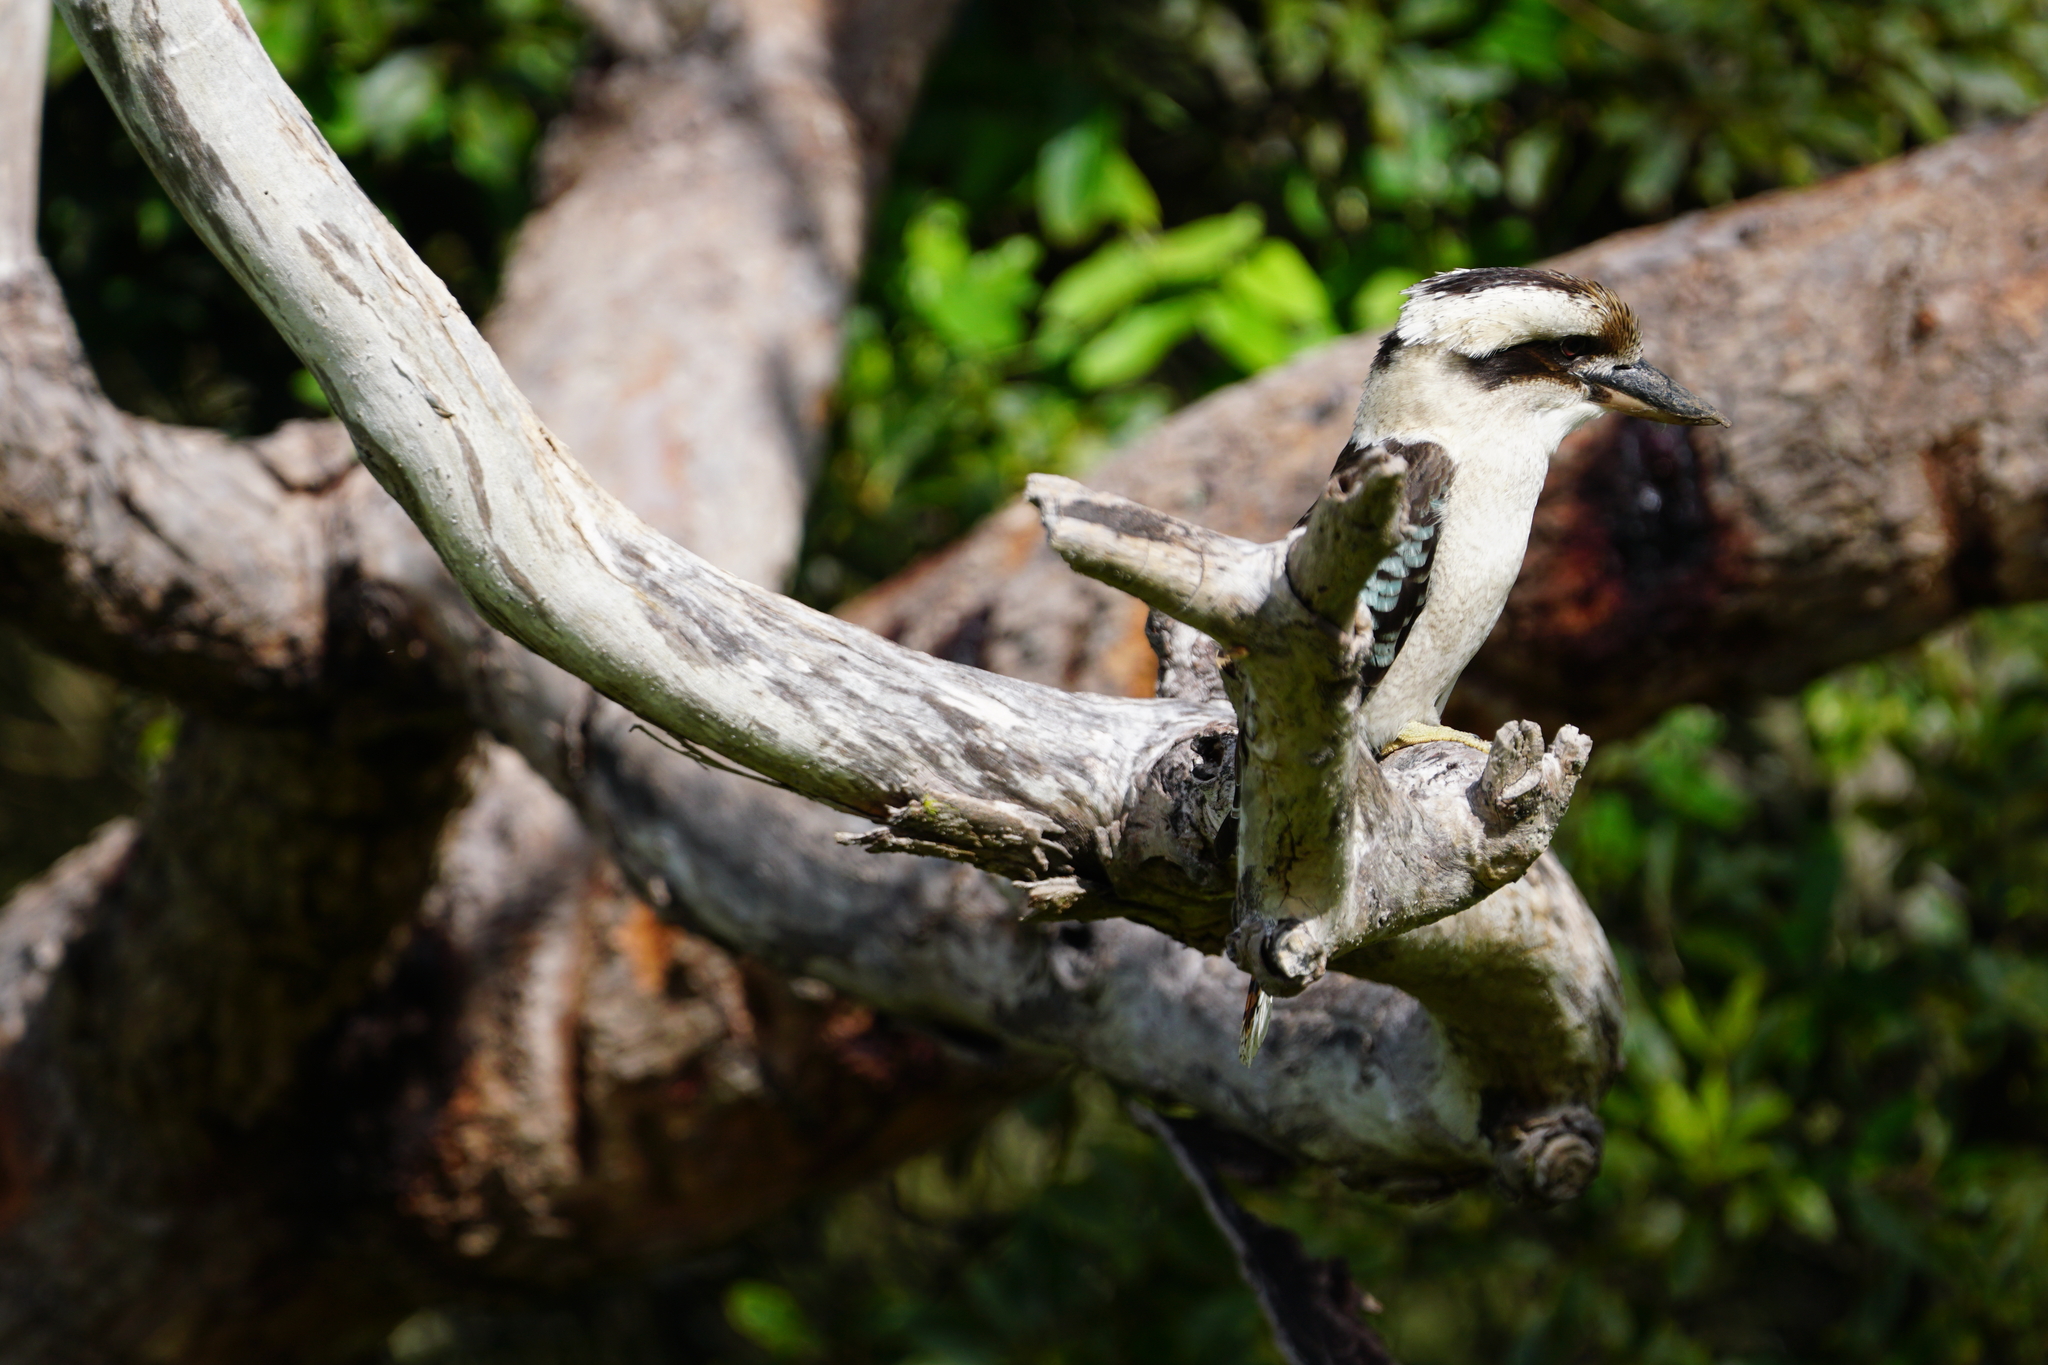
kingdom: Animalia
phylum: Chordata
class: Aves
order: Coraciiformes
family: Alcedinidae
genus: Dacelo
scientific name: Dacelo novaeguineae
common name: Laughing kookaburra
